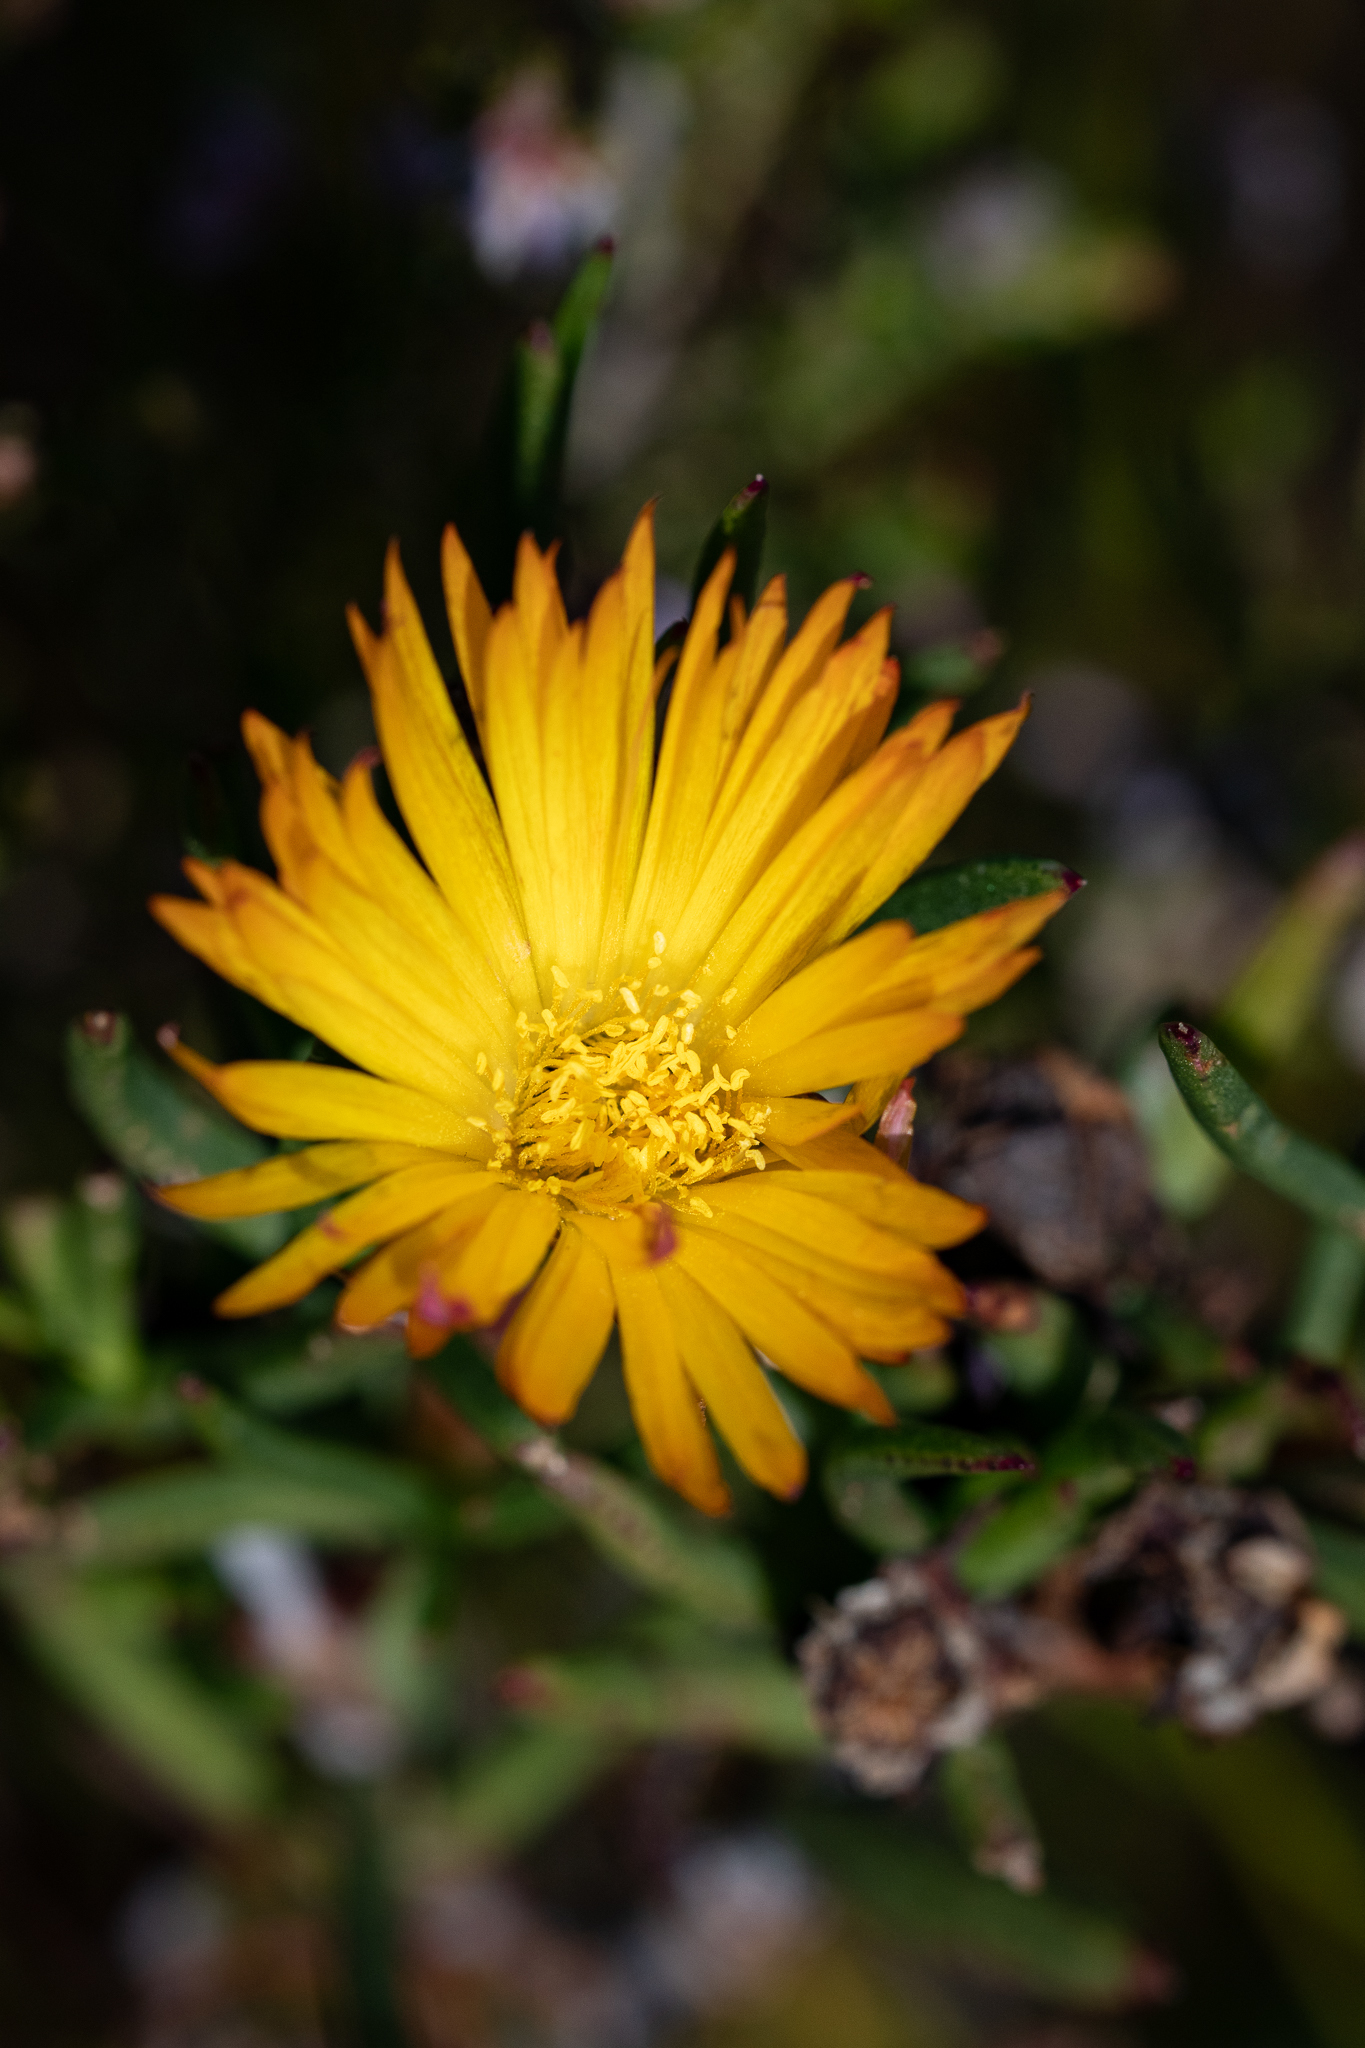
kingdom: Plantae
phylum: Tracheophyta
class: Magnoliopsida
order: Caryophyllales
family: Aizoaceae
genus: Lampranthus
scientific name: Lampranthus bicolor
